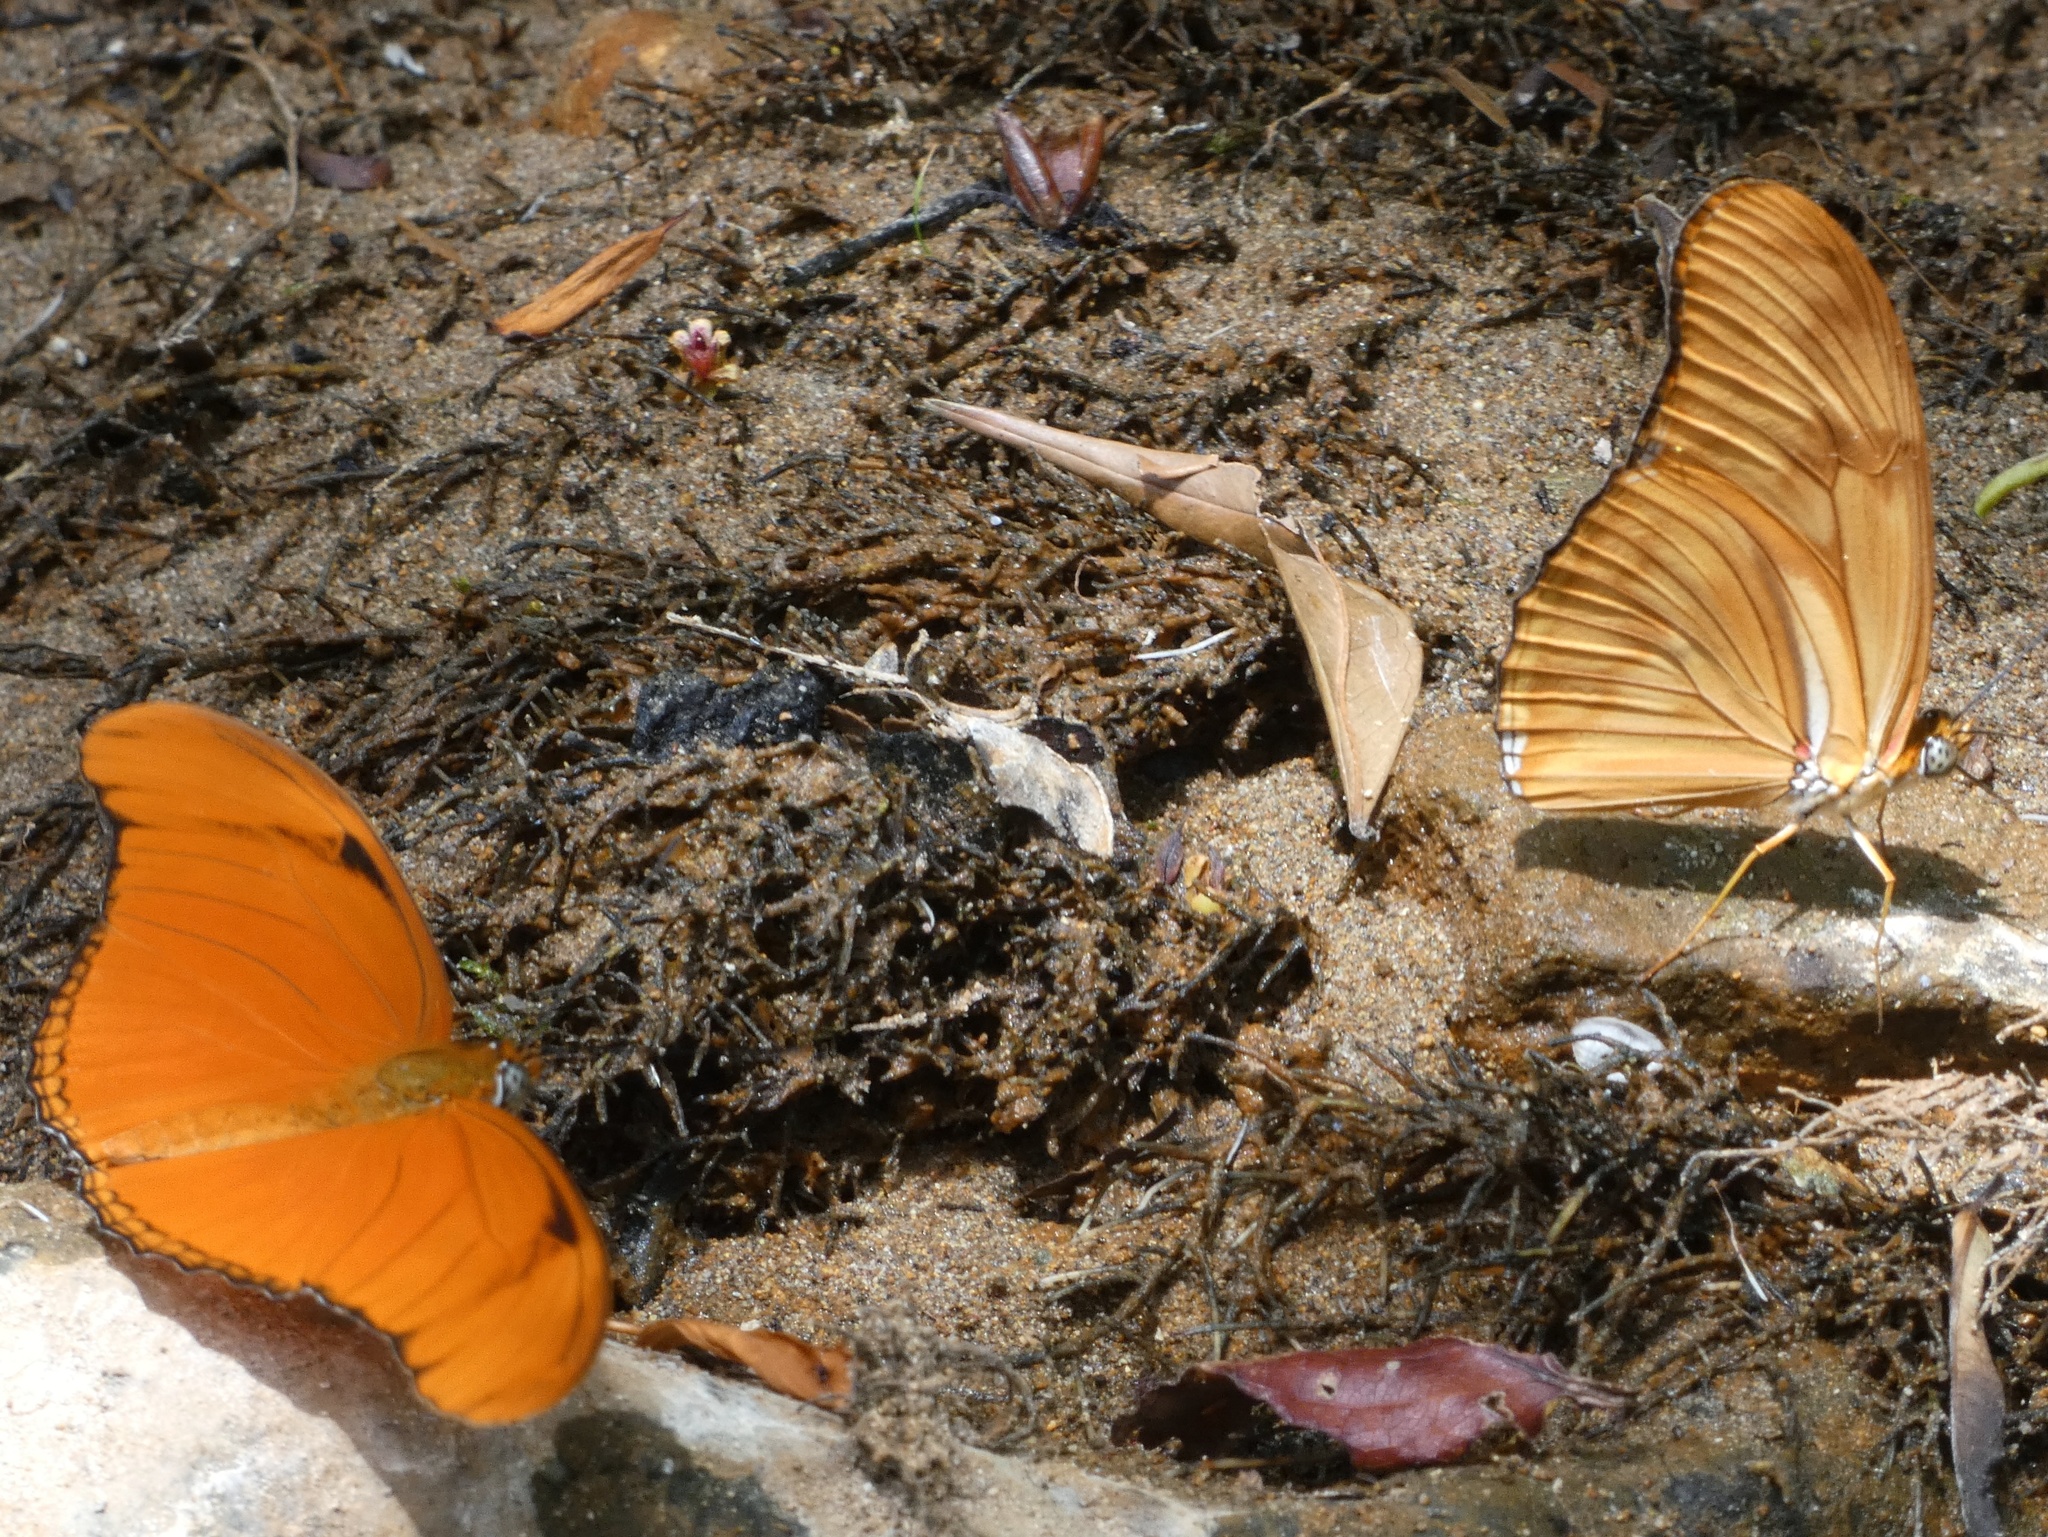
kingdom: Animalia
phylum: Arthropoda
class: Insecta
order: Lepidoptera
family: Nymphalidae
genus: Dryas
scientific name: Dryas iulia
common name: Flambeau
